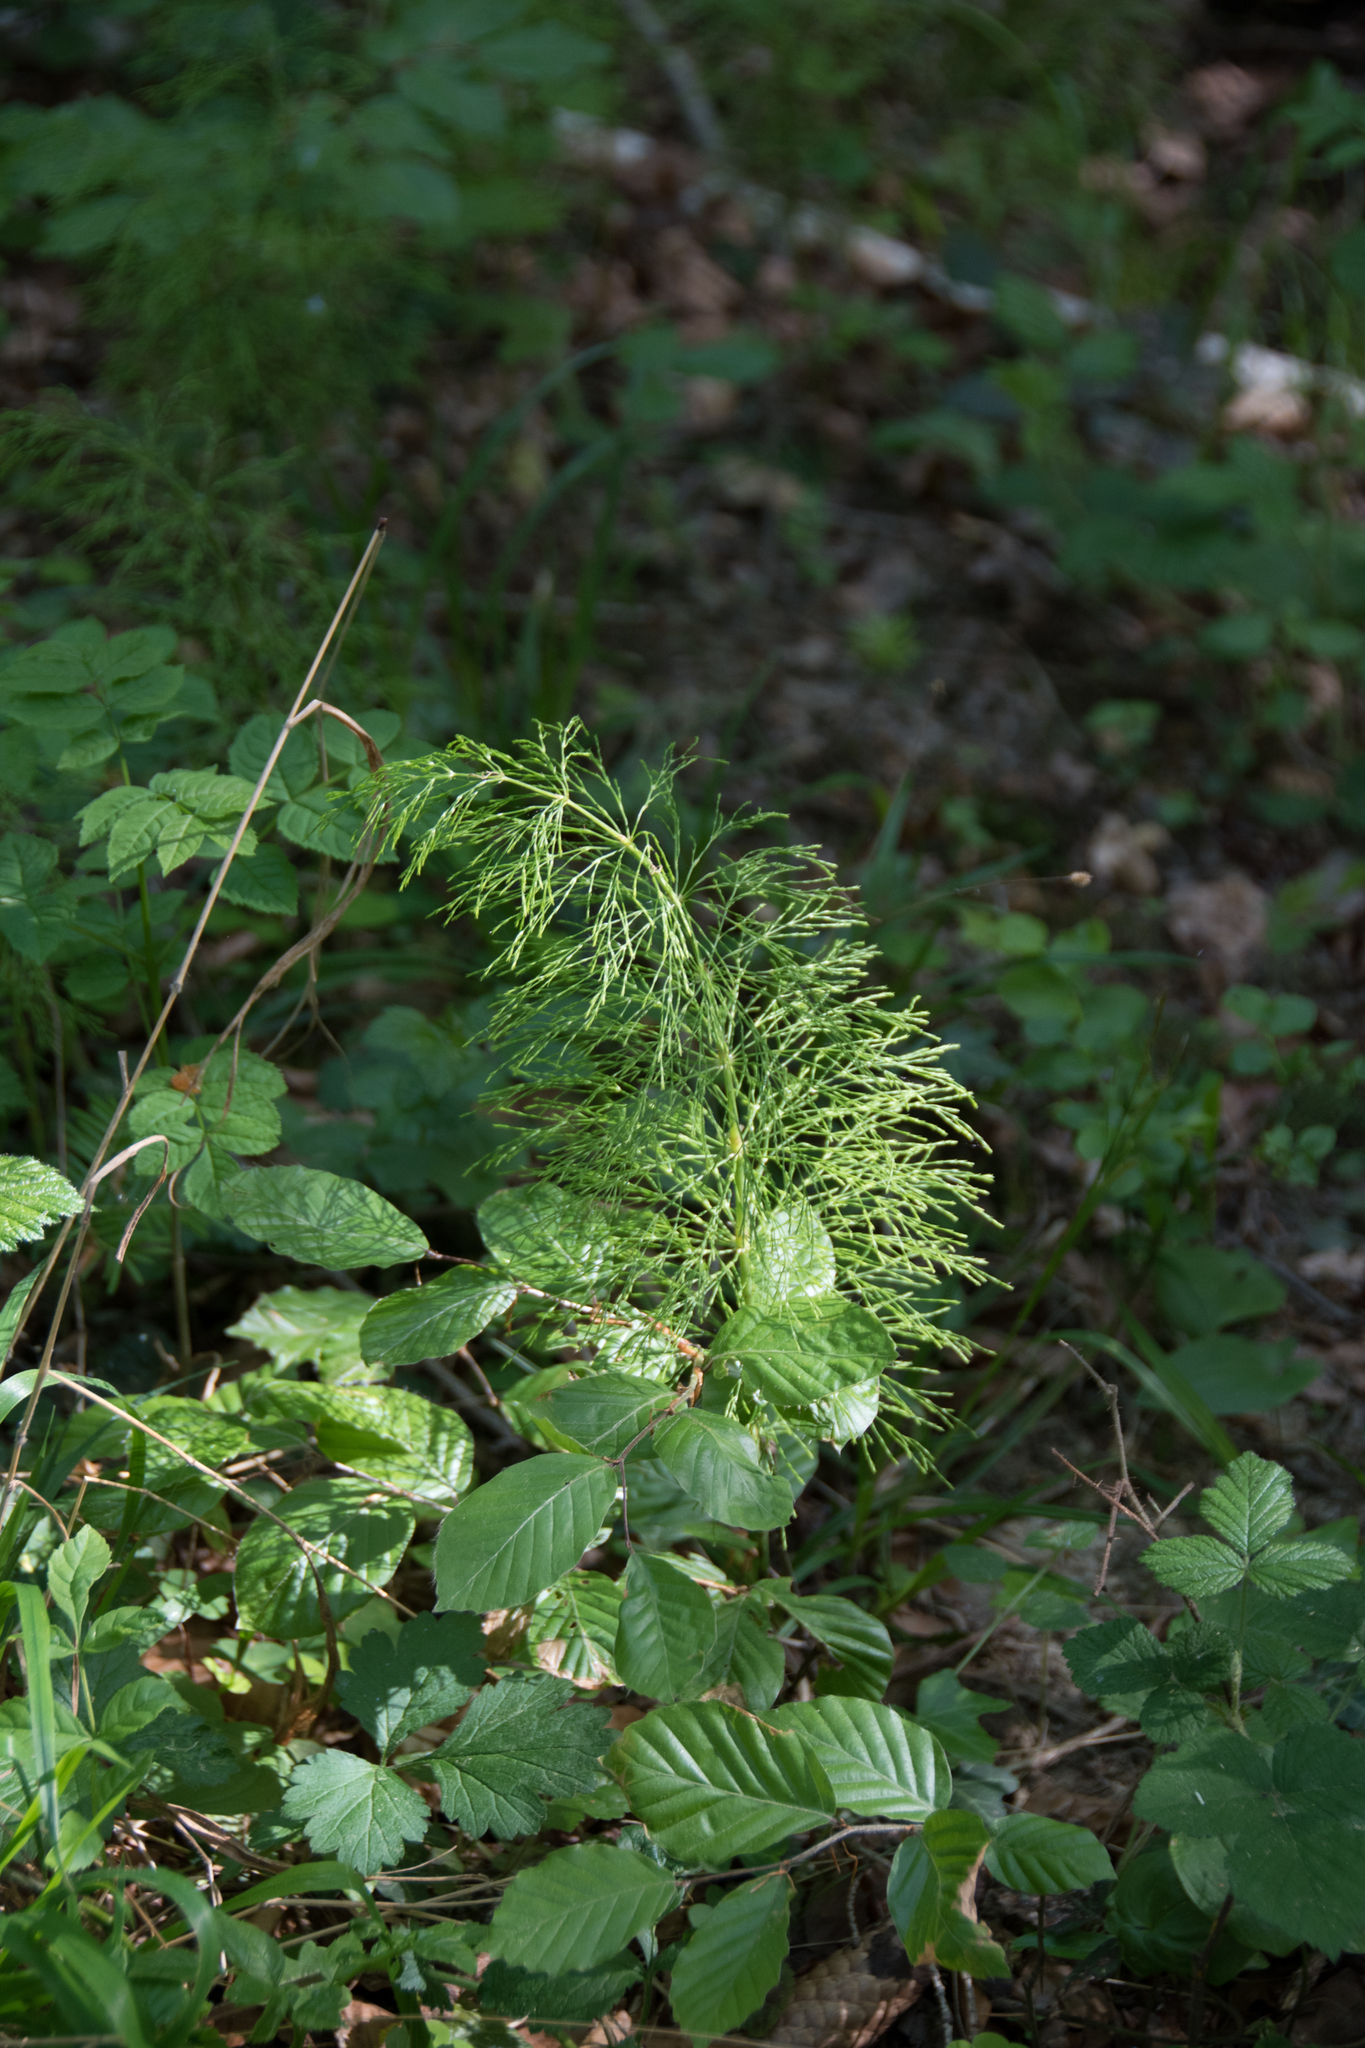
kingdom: Plantae
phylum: Tracheophyta
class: Polypodiopsida
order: Equisetales
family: Equisetaceae
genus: Equisetum
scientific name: Equisetum sylvaticum
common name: Wood horsetail
